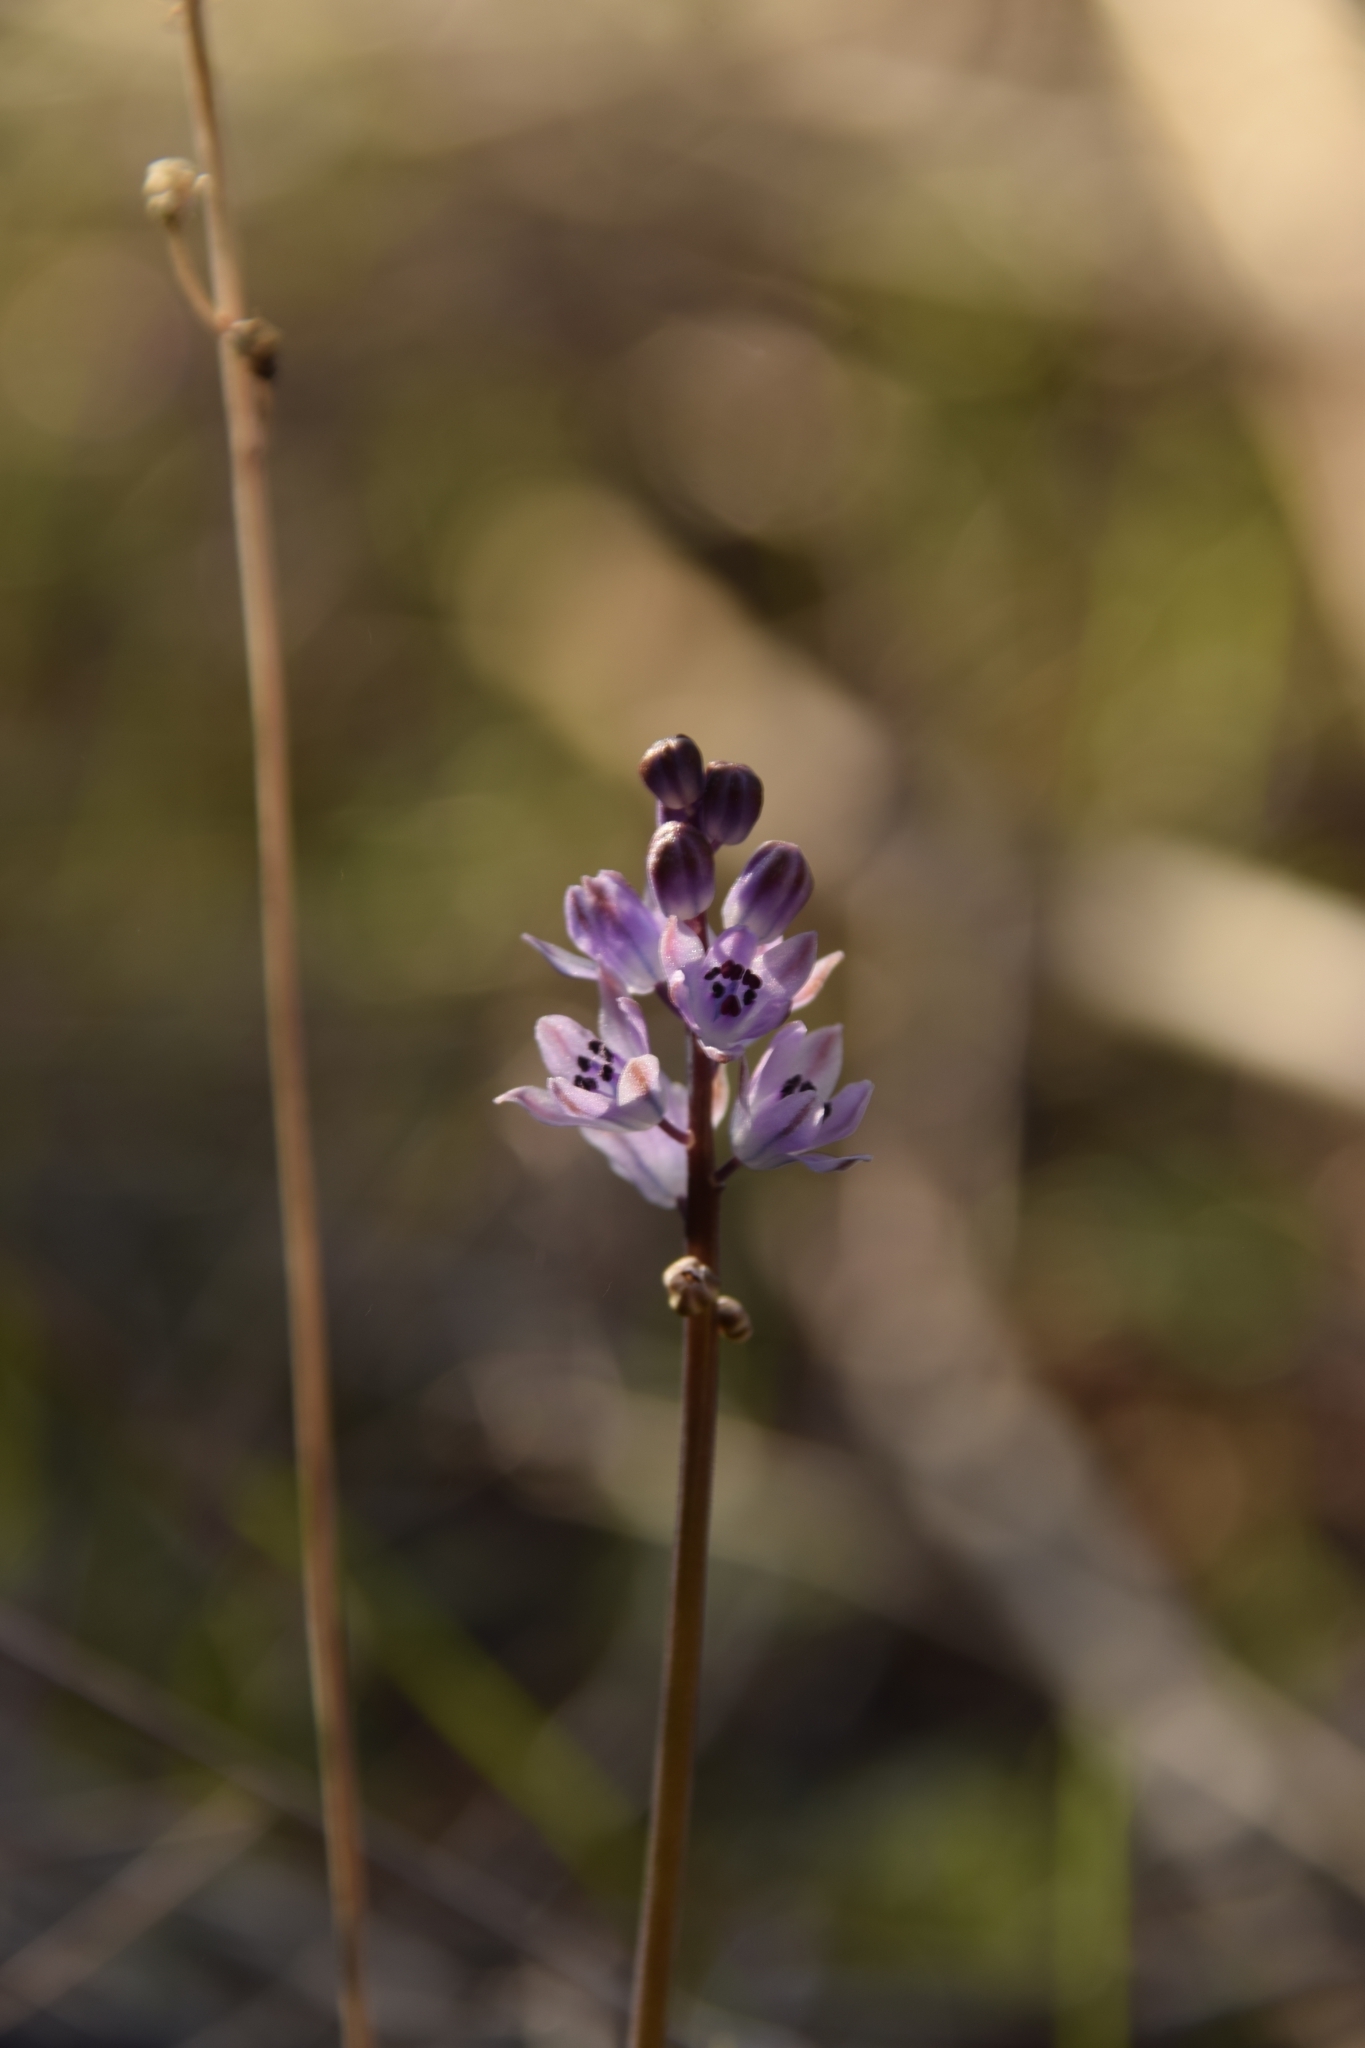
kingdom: Plantae
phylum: Tracheophyta
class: Liliopsida
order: Asparagales
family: Asparagaceae
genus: Prospero
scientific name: Prospero autumnale
